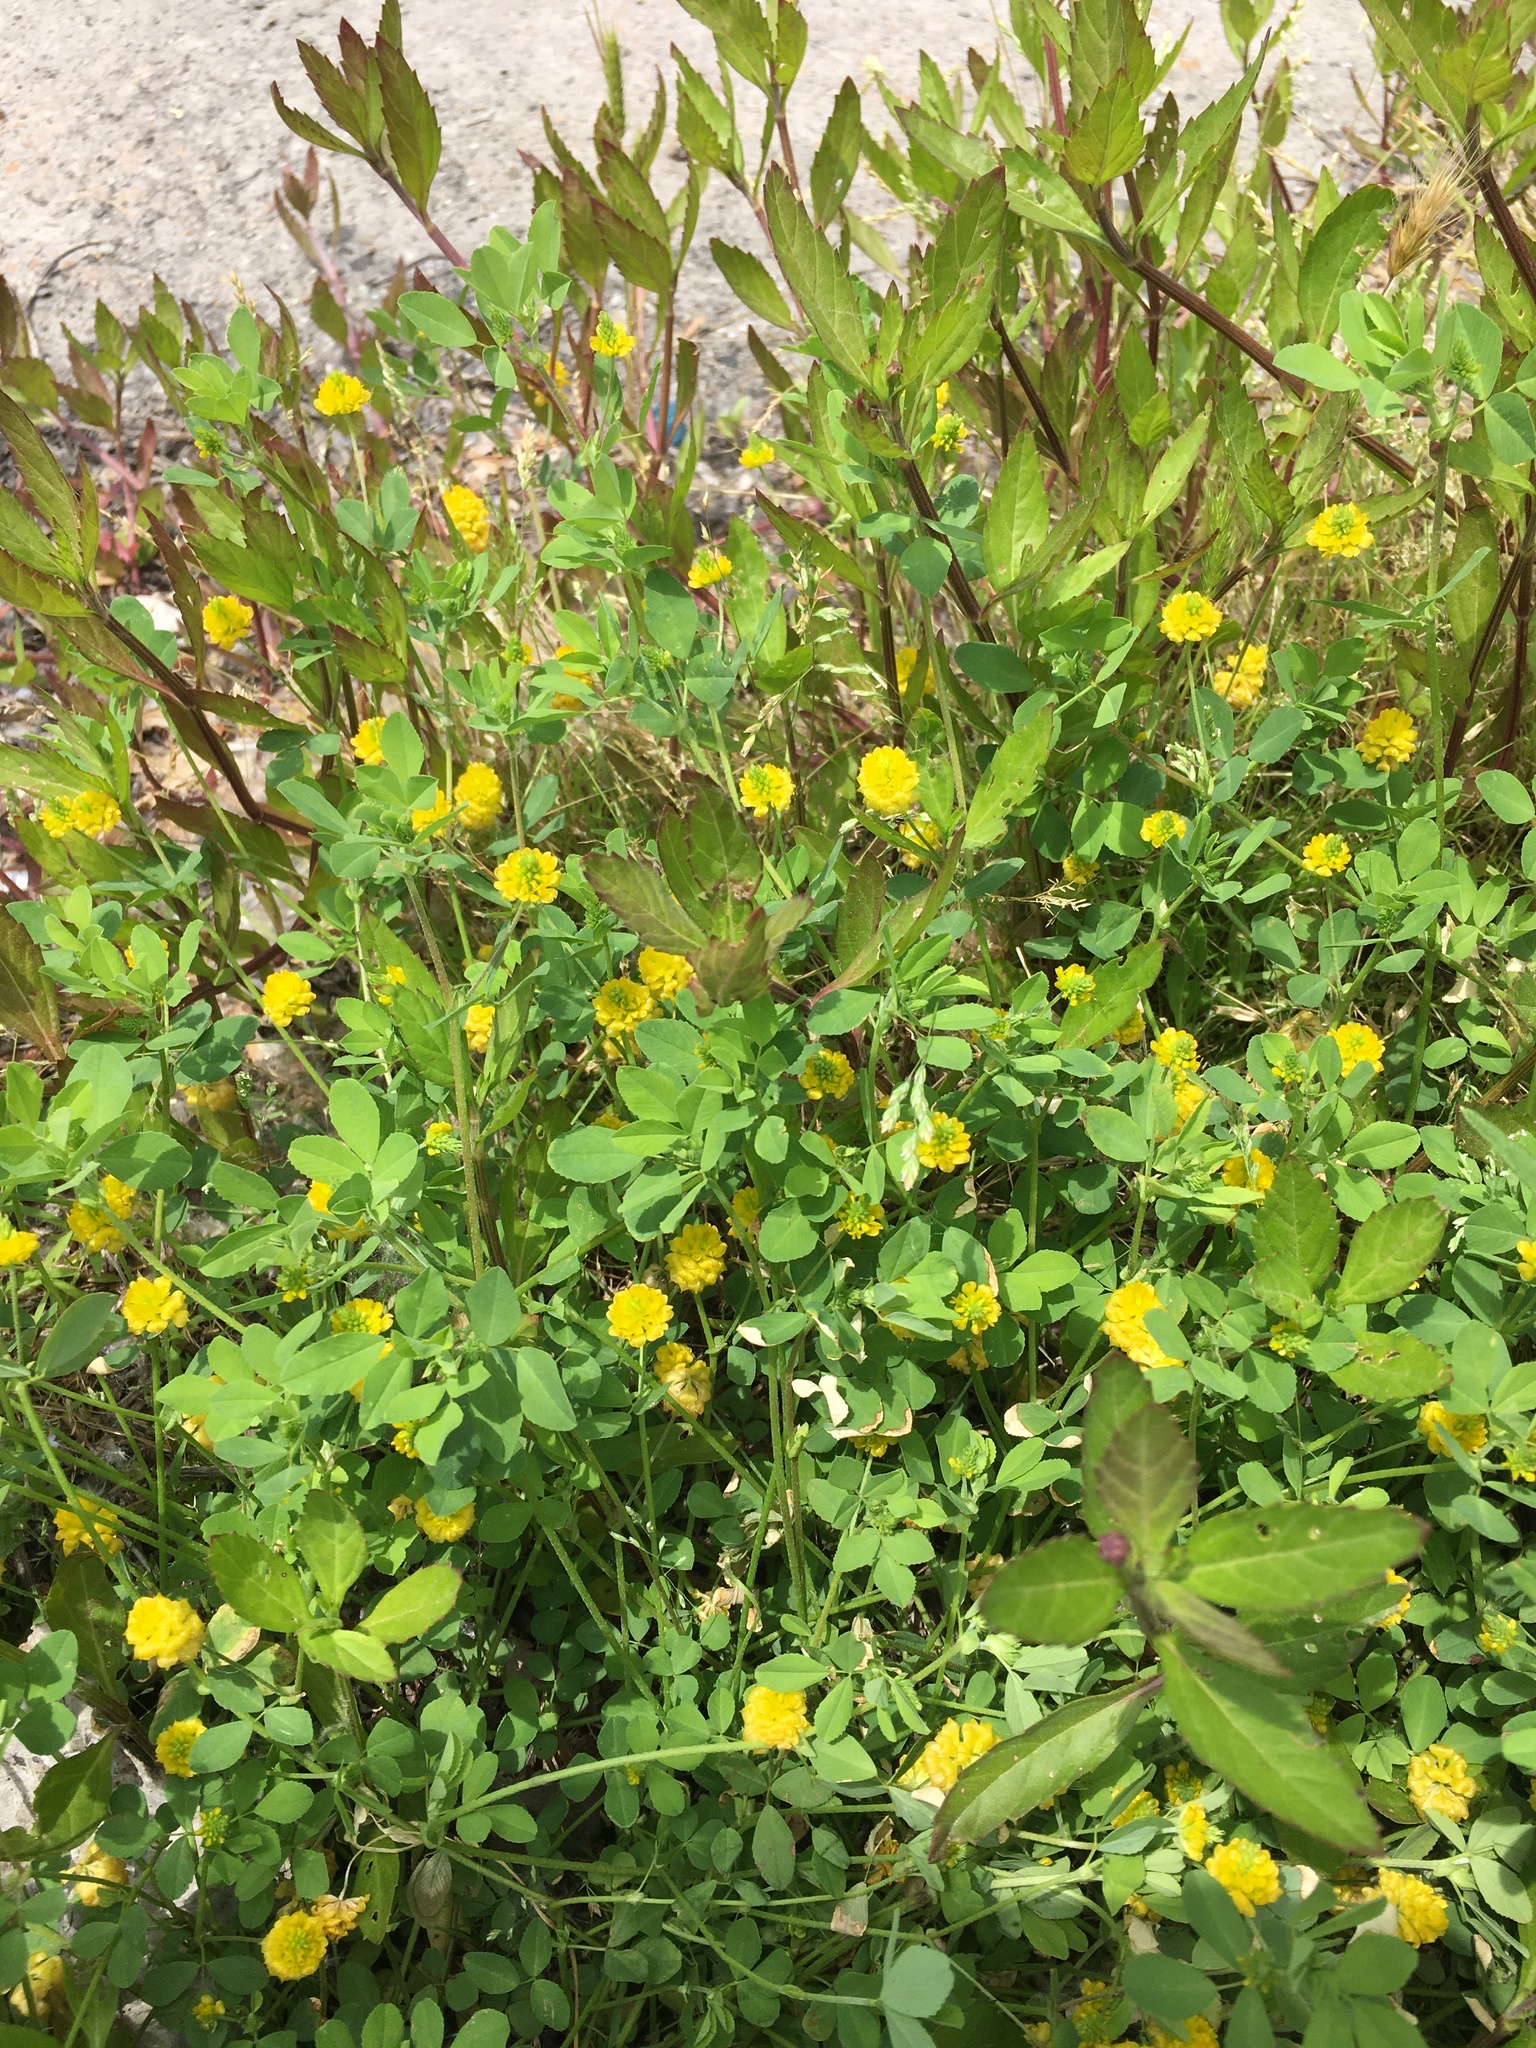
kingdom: Plantae
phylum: Tracheophyta
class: Magnoliopsida
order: Fabales
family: Fabaceae
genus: Trifolium
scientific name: Trifolium campestre
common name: Field clover
